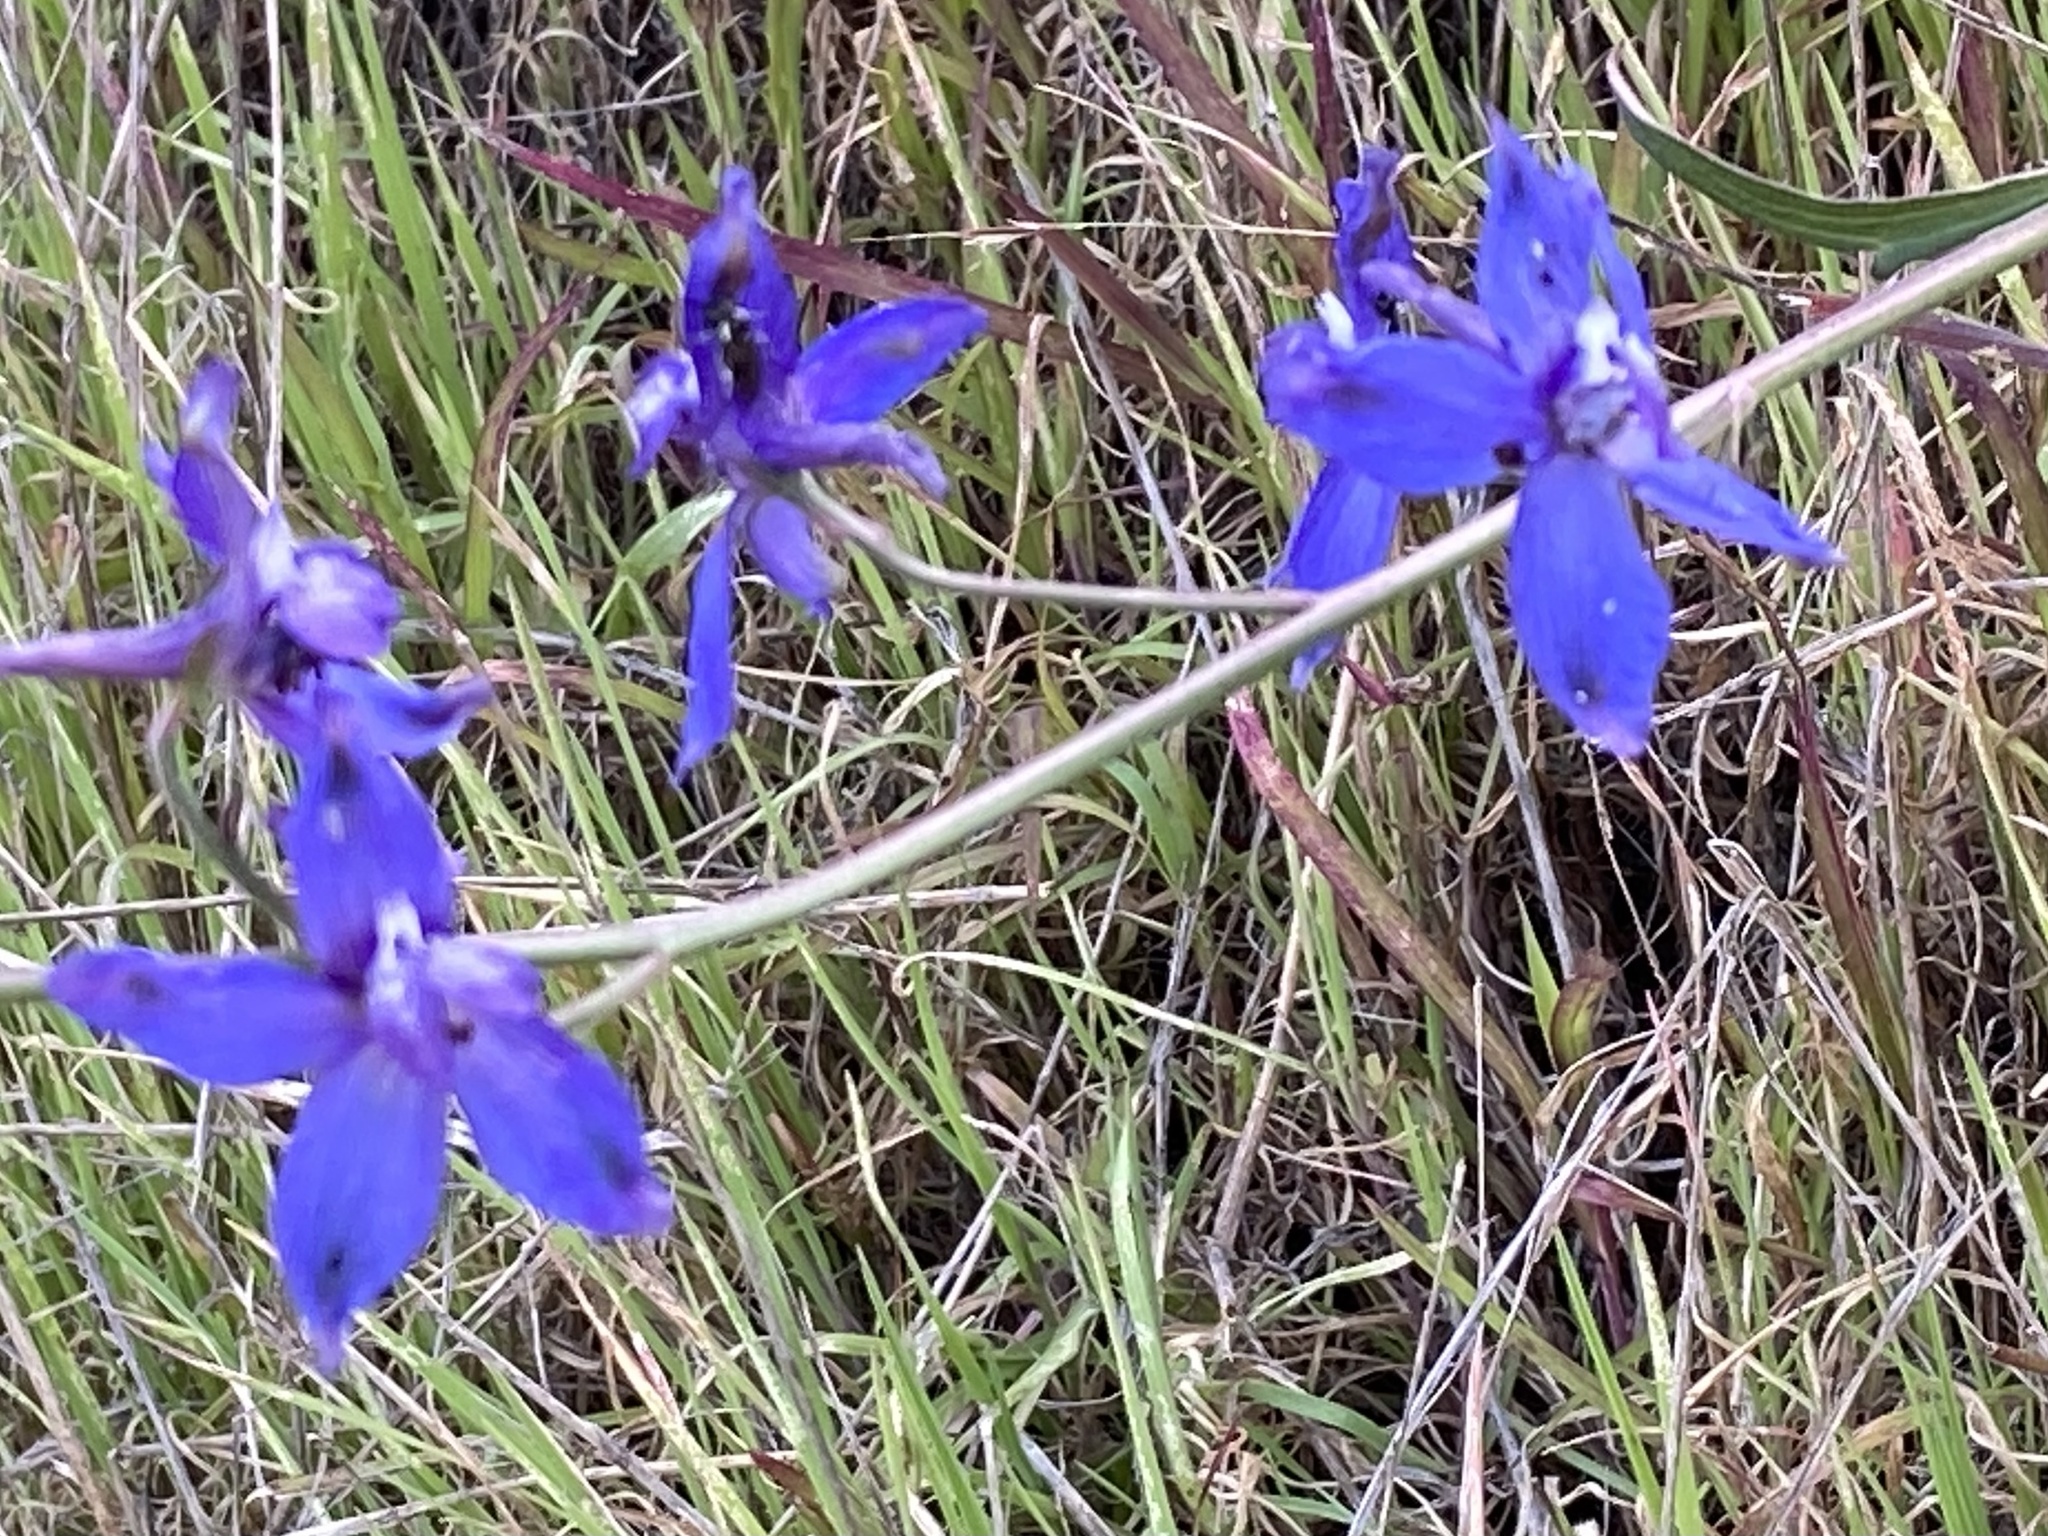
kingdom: Plantae
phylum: Tracheophyta
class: Magnoliopsida
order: Ranunculales
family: Ranunculaceae
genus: Delphinium
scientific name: Delphinium parryi
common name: Parry's larkspur
